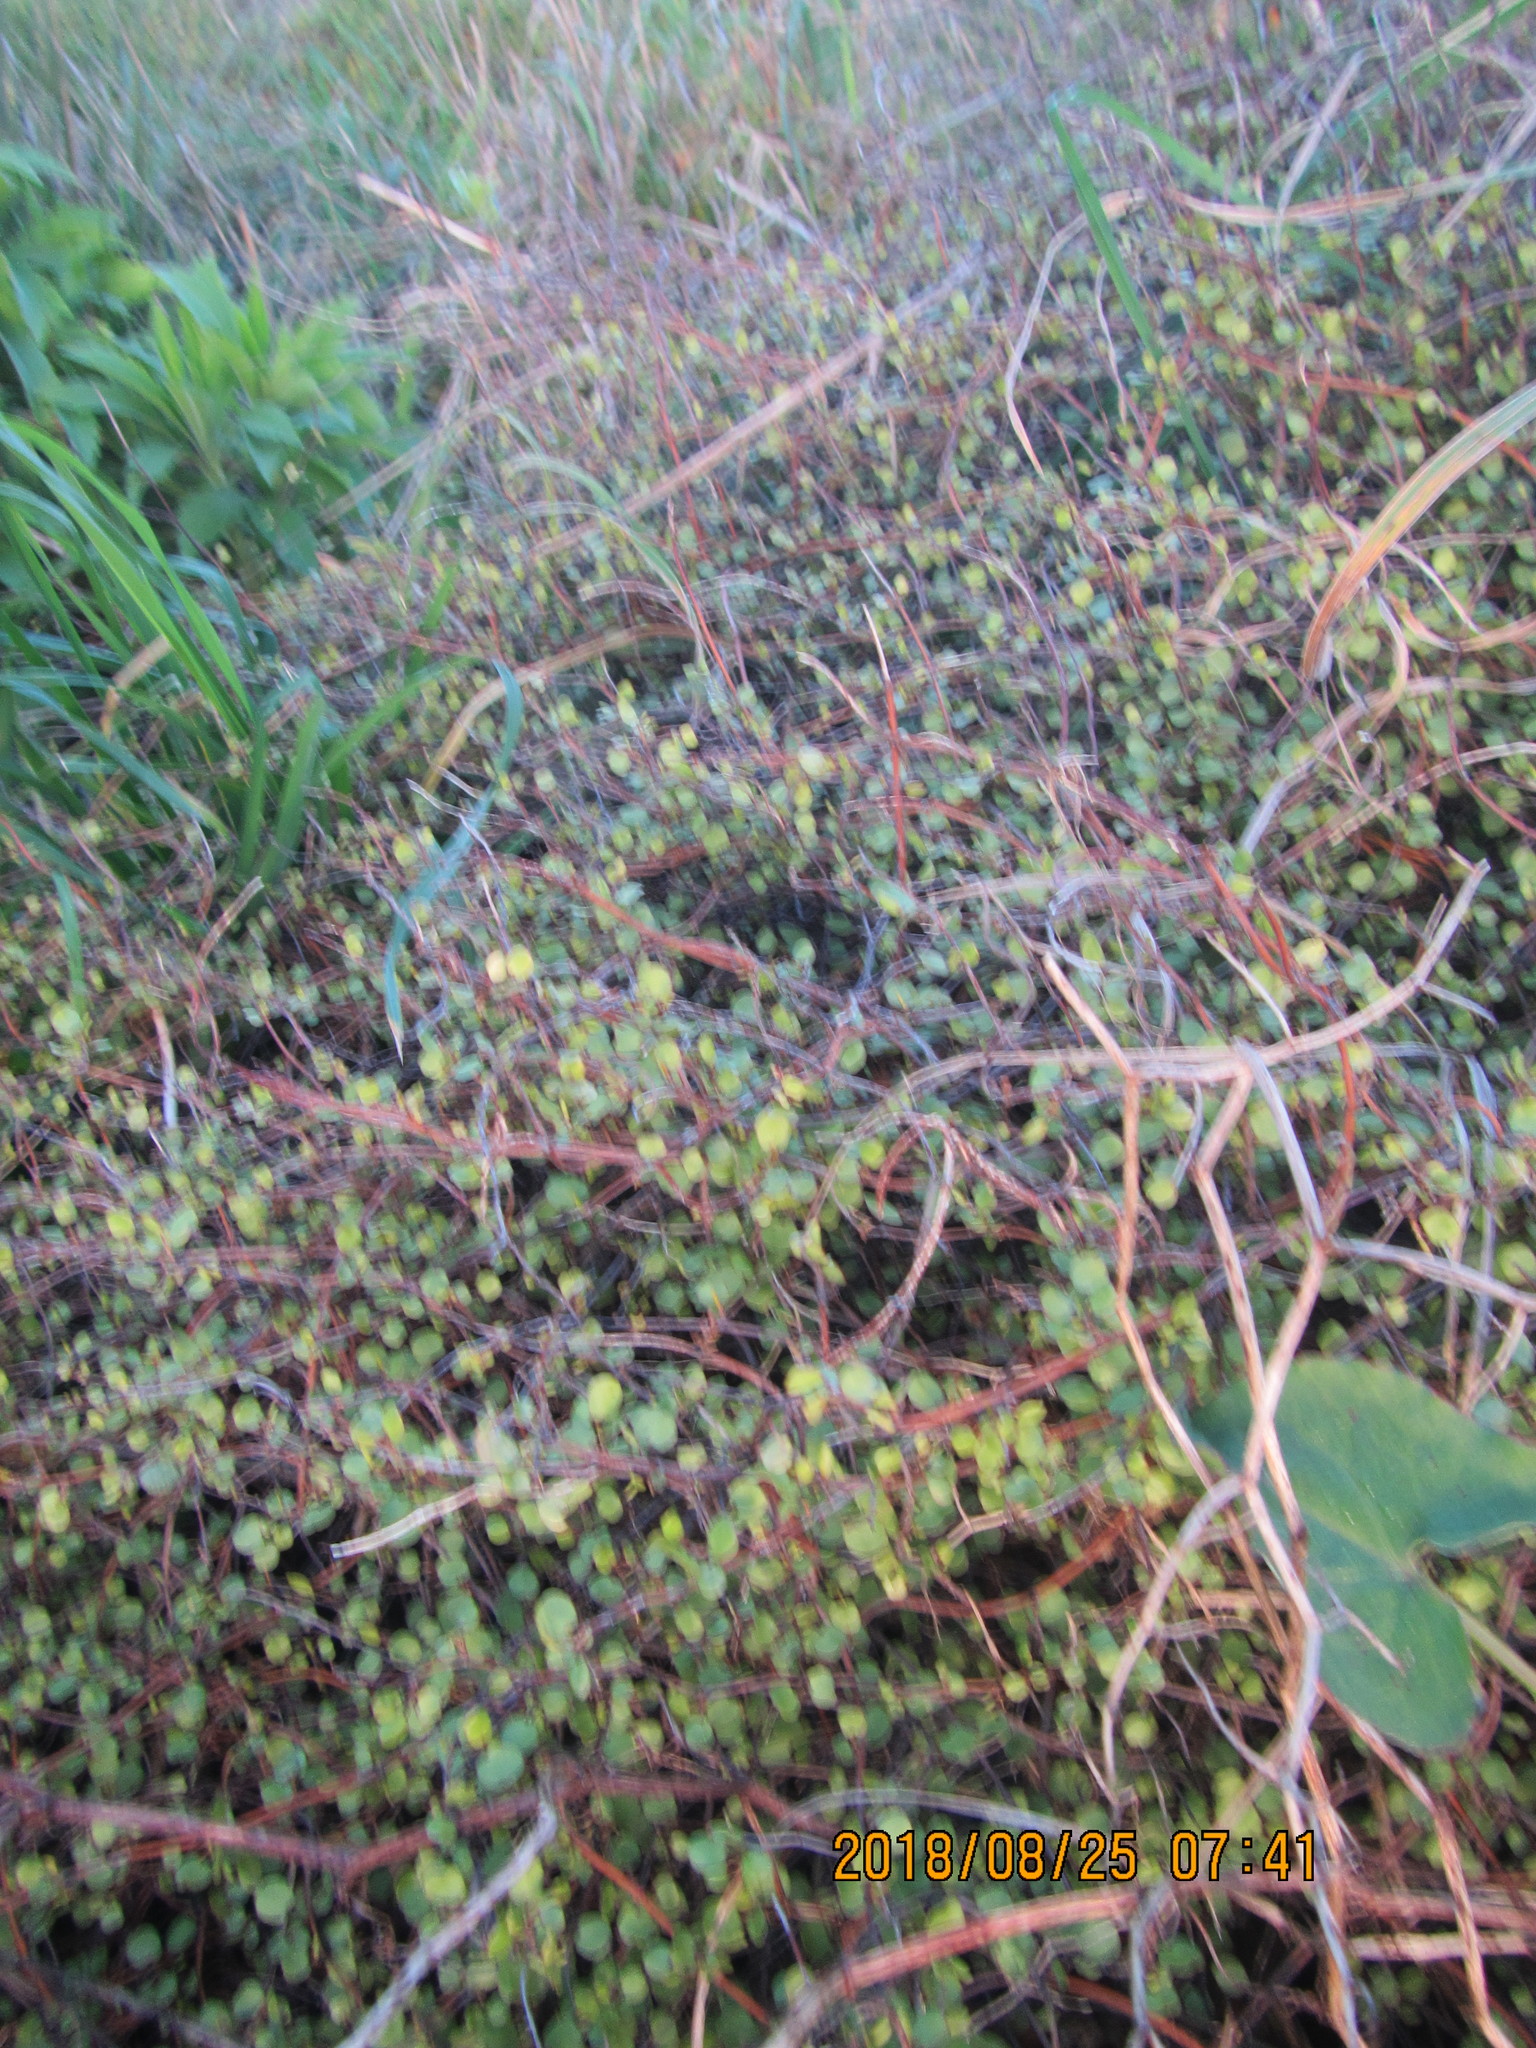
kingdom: Plantae
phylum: Tracheophyta
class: Magnoliopsida
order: Caryophyllales
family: Polygonaceae
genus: Muehlenbeckia
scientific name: Muehlenbeckia complexa
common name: Wireplant
